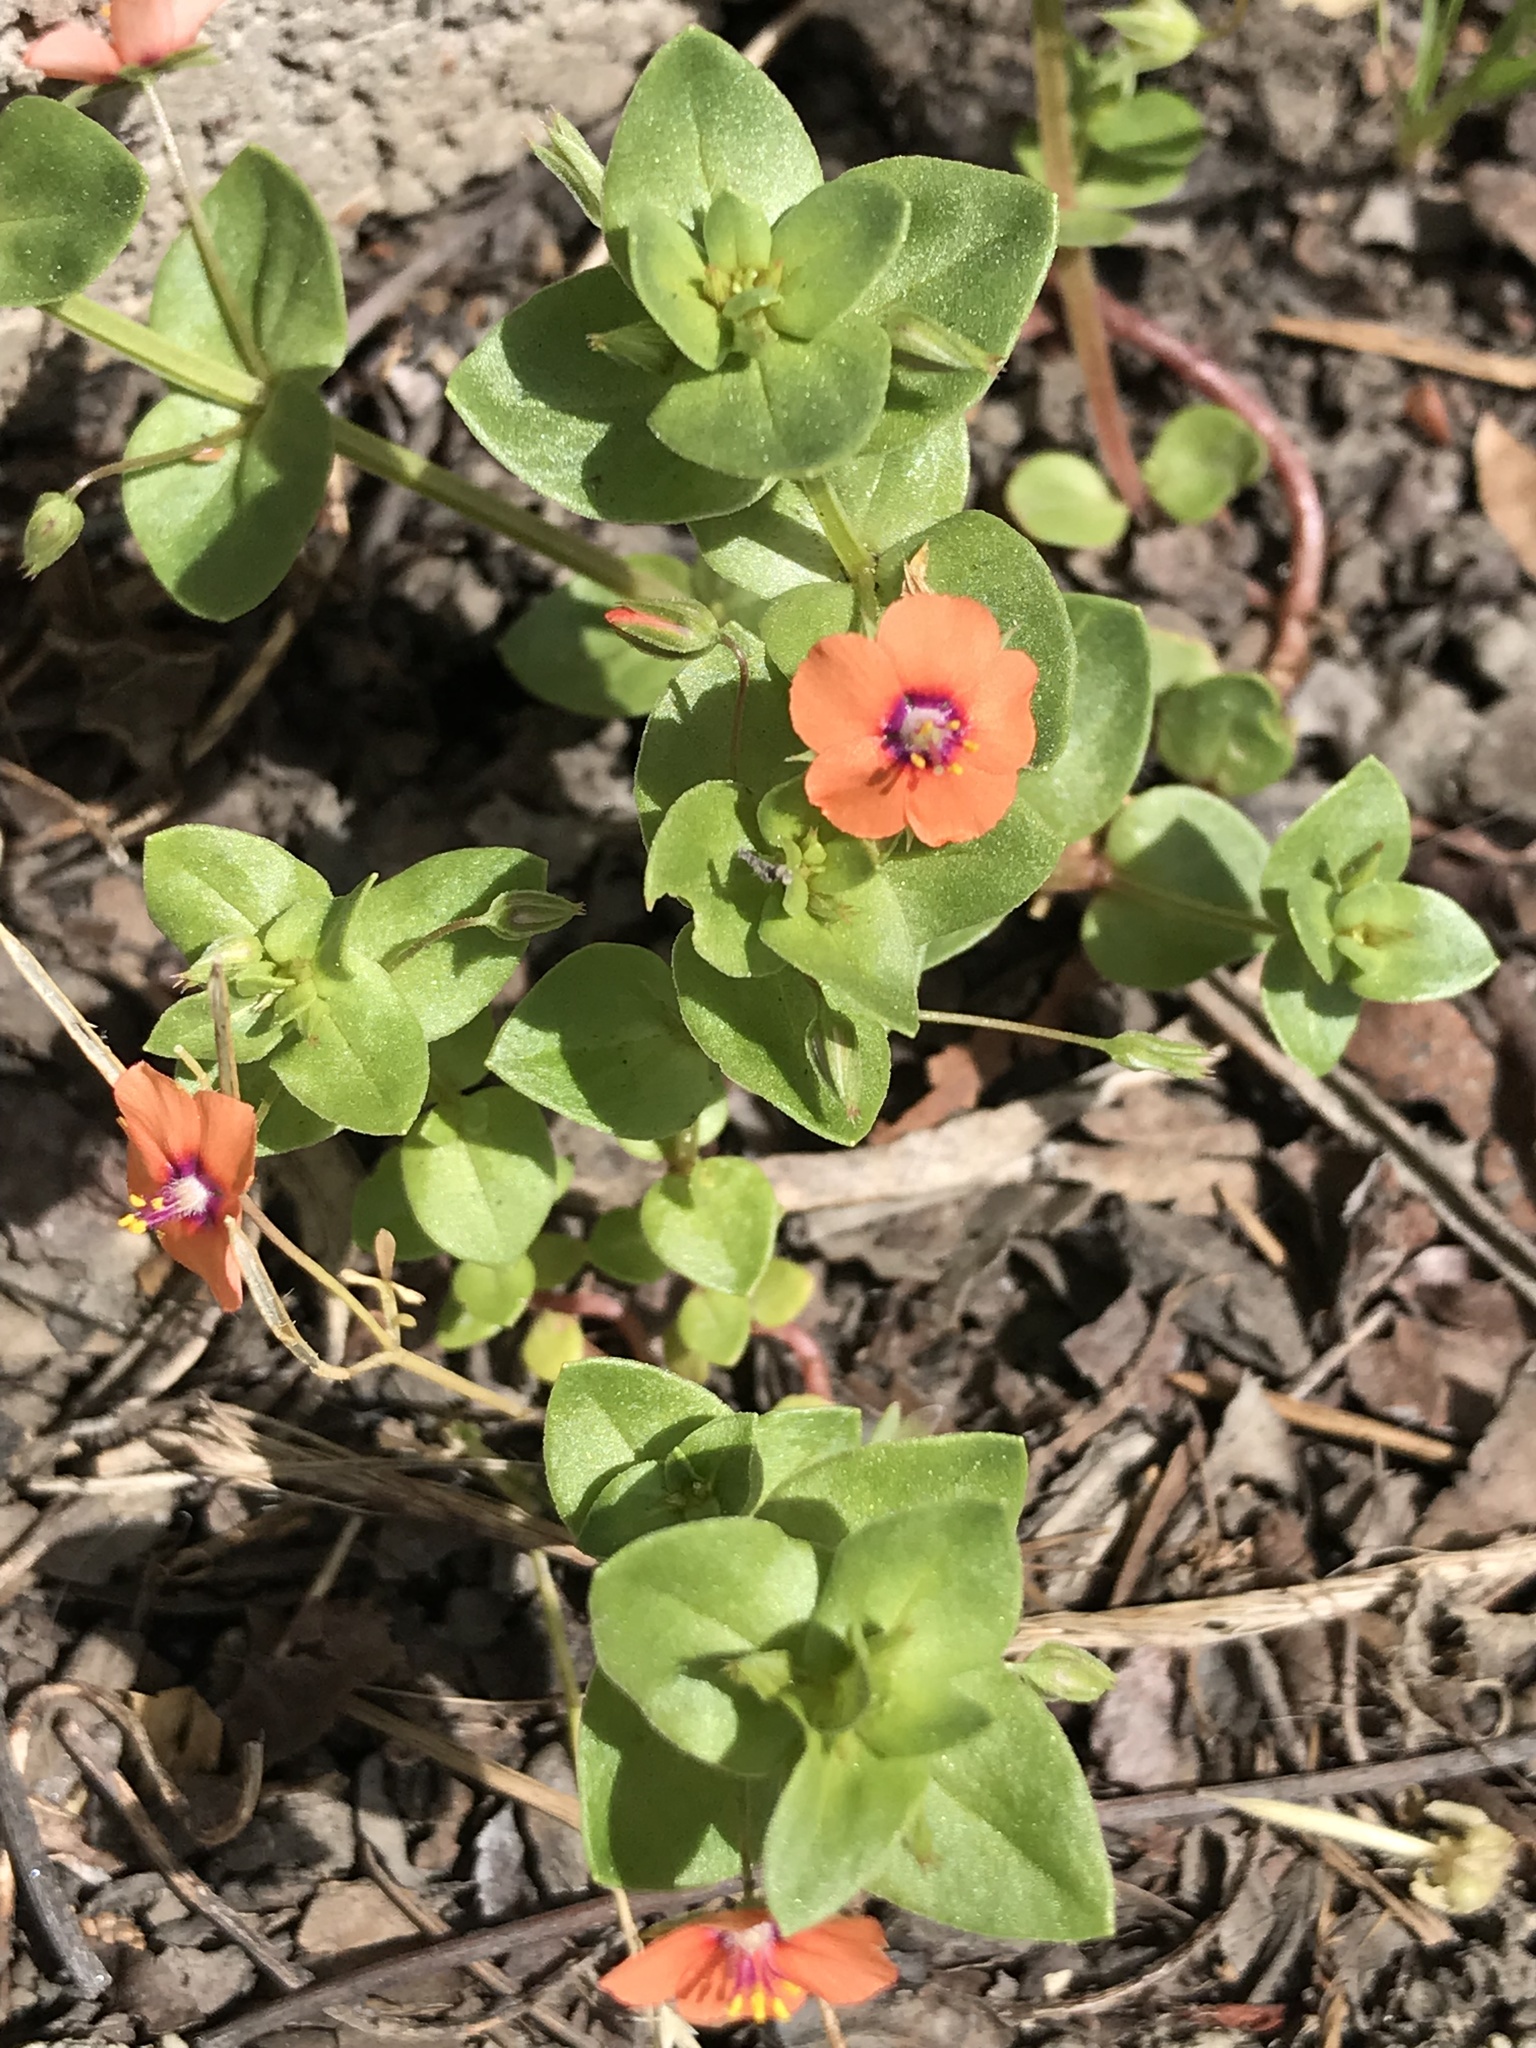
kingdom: Plantae
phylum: Tracheophyta
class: Magnoliopsida
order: Ericales
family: Primulaceae
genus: Lysimachia
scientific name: Lysimachia arvensis
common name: Scarlet pimpernel
